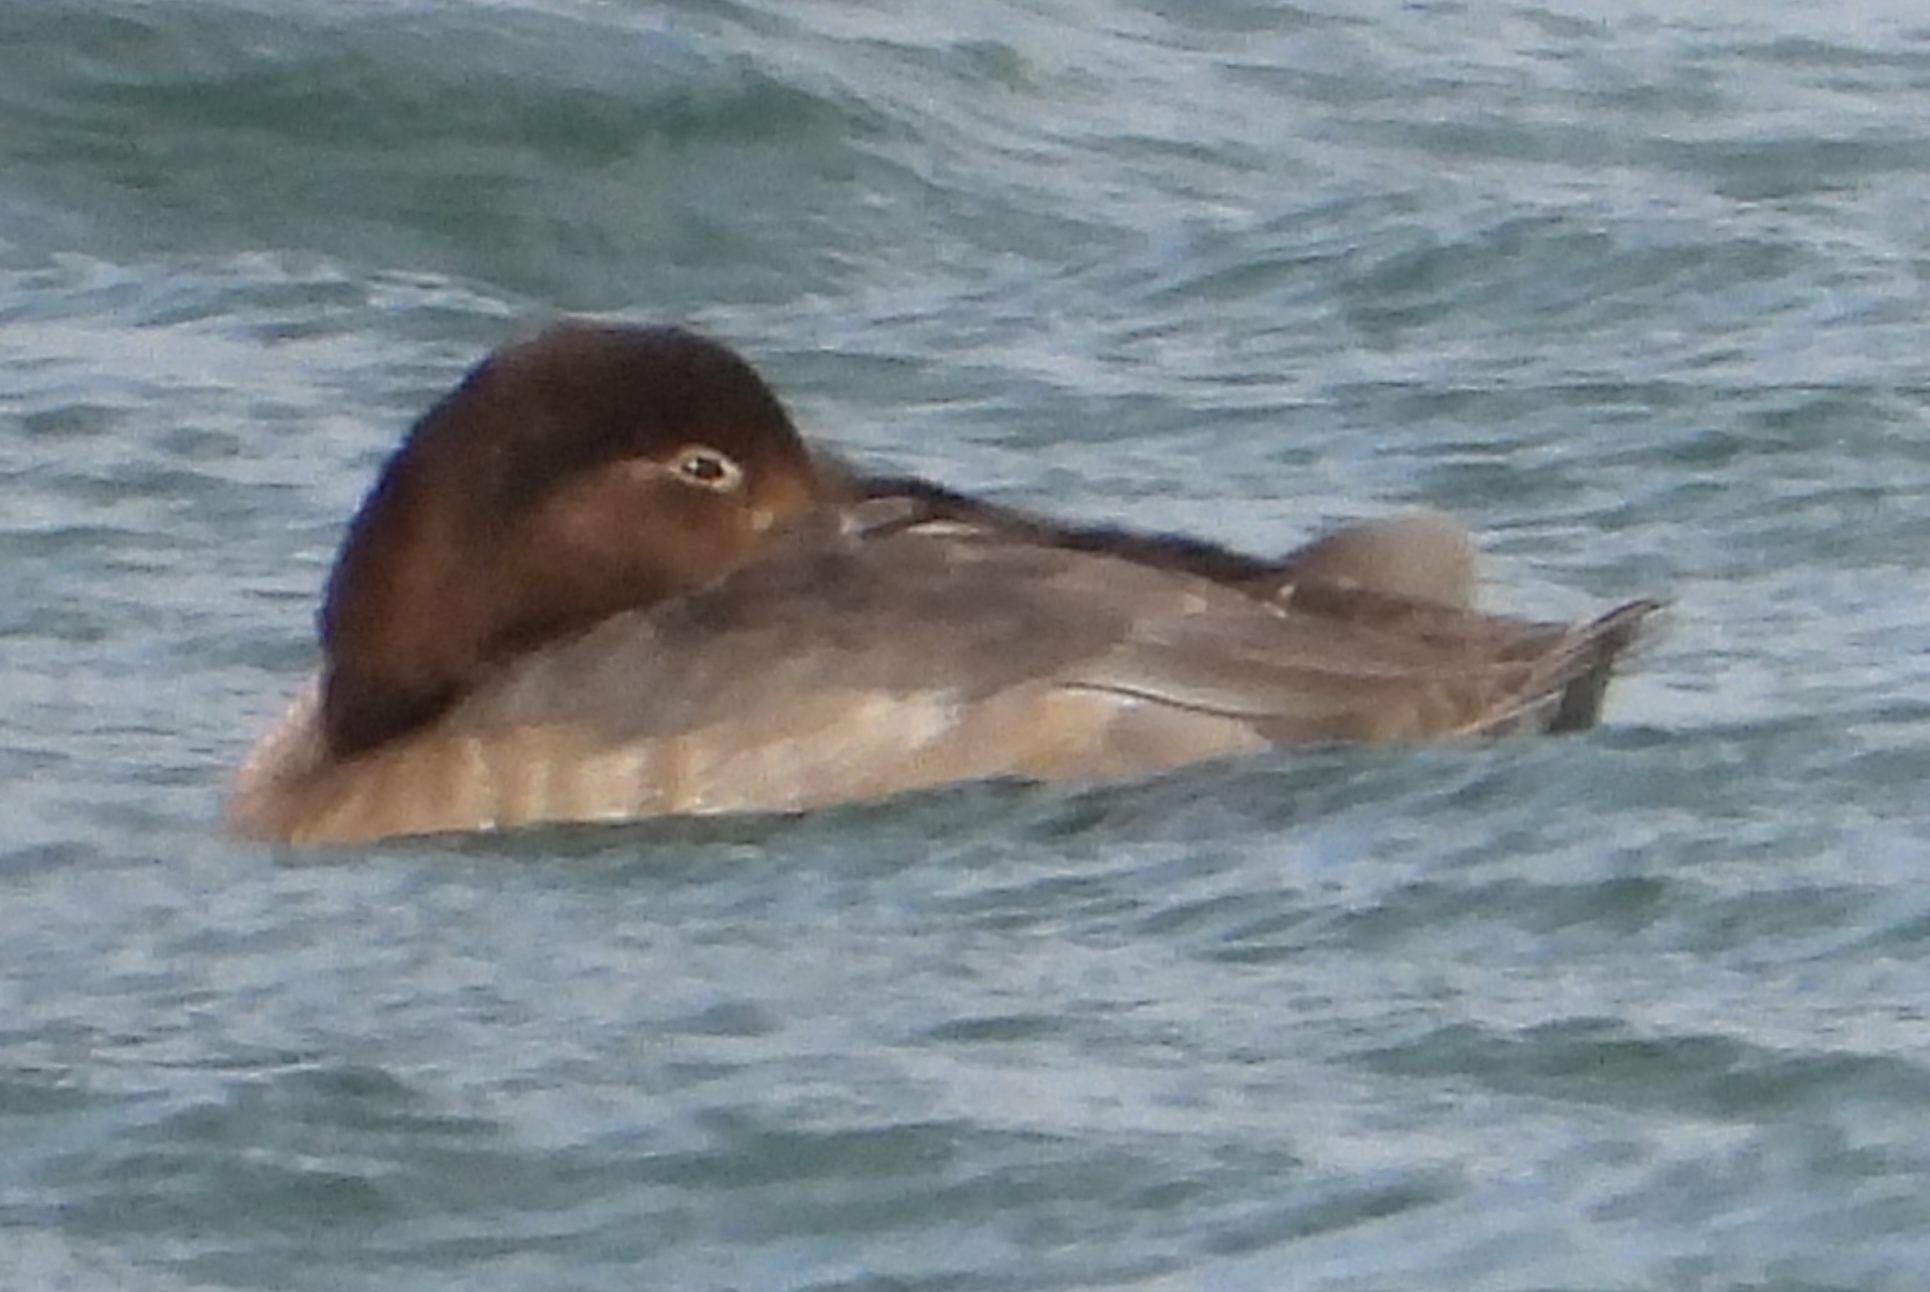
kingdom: Animalia
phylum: Chordata
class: Aves
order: Anseriformes
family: Anatidae
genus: Aythya
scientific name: Aythya americana
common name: Redhead
